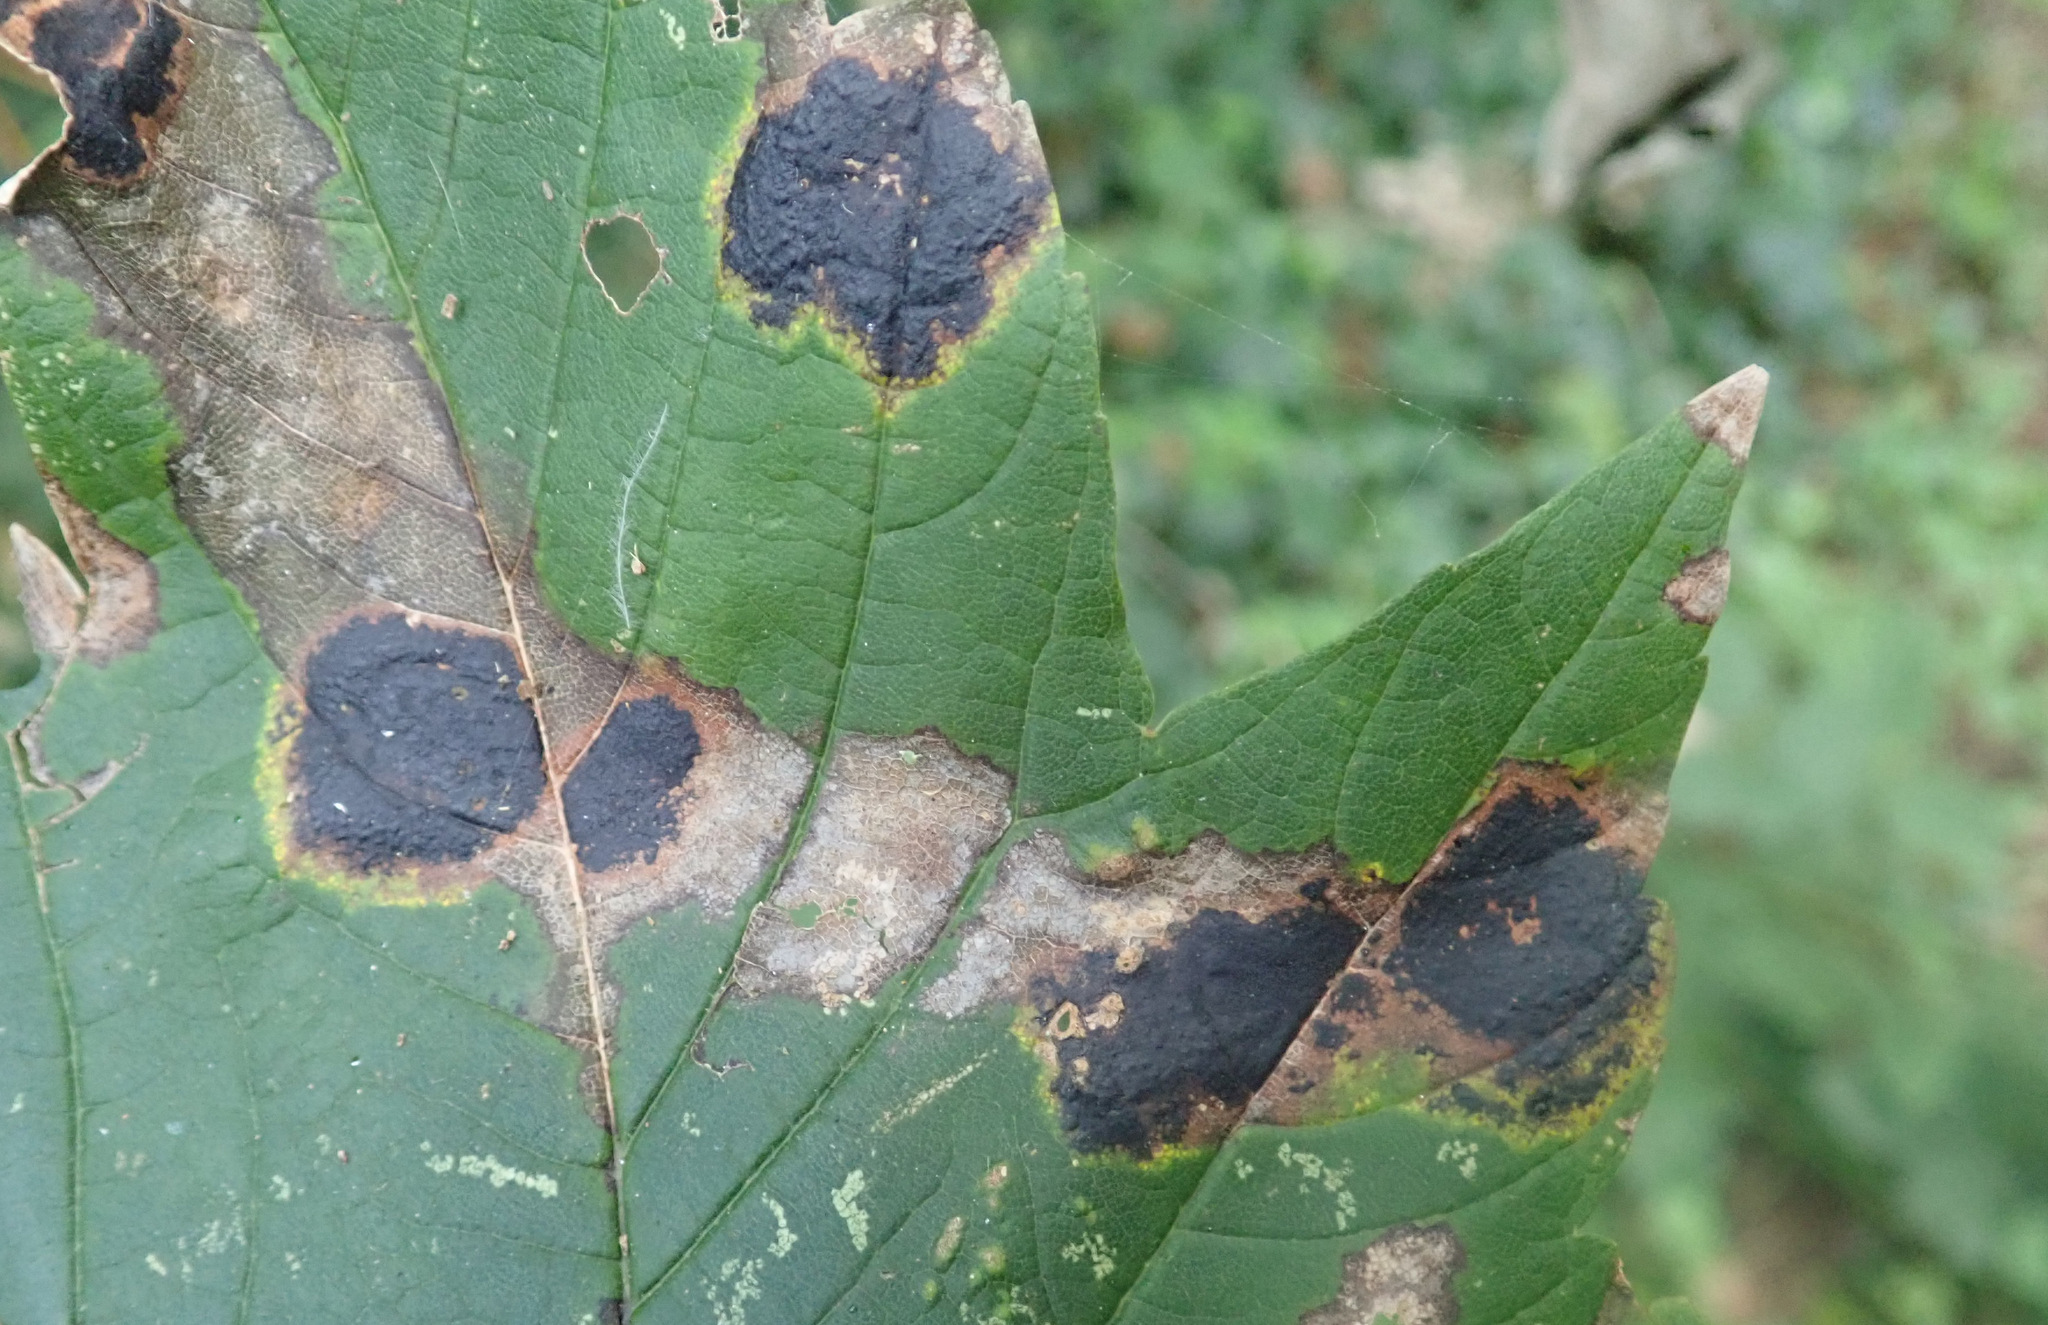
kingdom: Fungi
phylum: Ascomycota
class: Leotiomycetes
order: Rhytismatales
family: Rhytismataceae
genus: Rhytisma
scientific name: Rhytisma acerinum
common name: European tar spot
